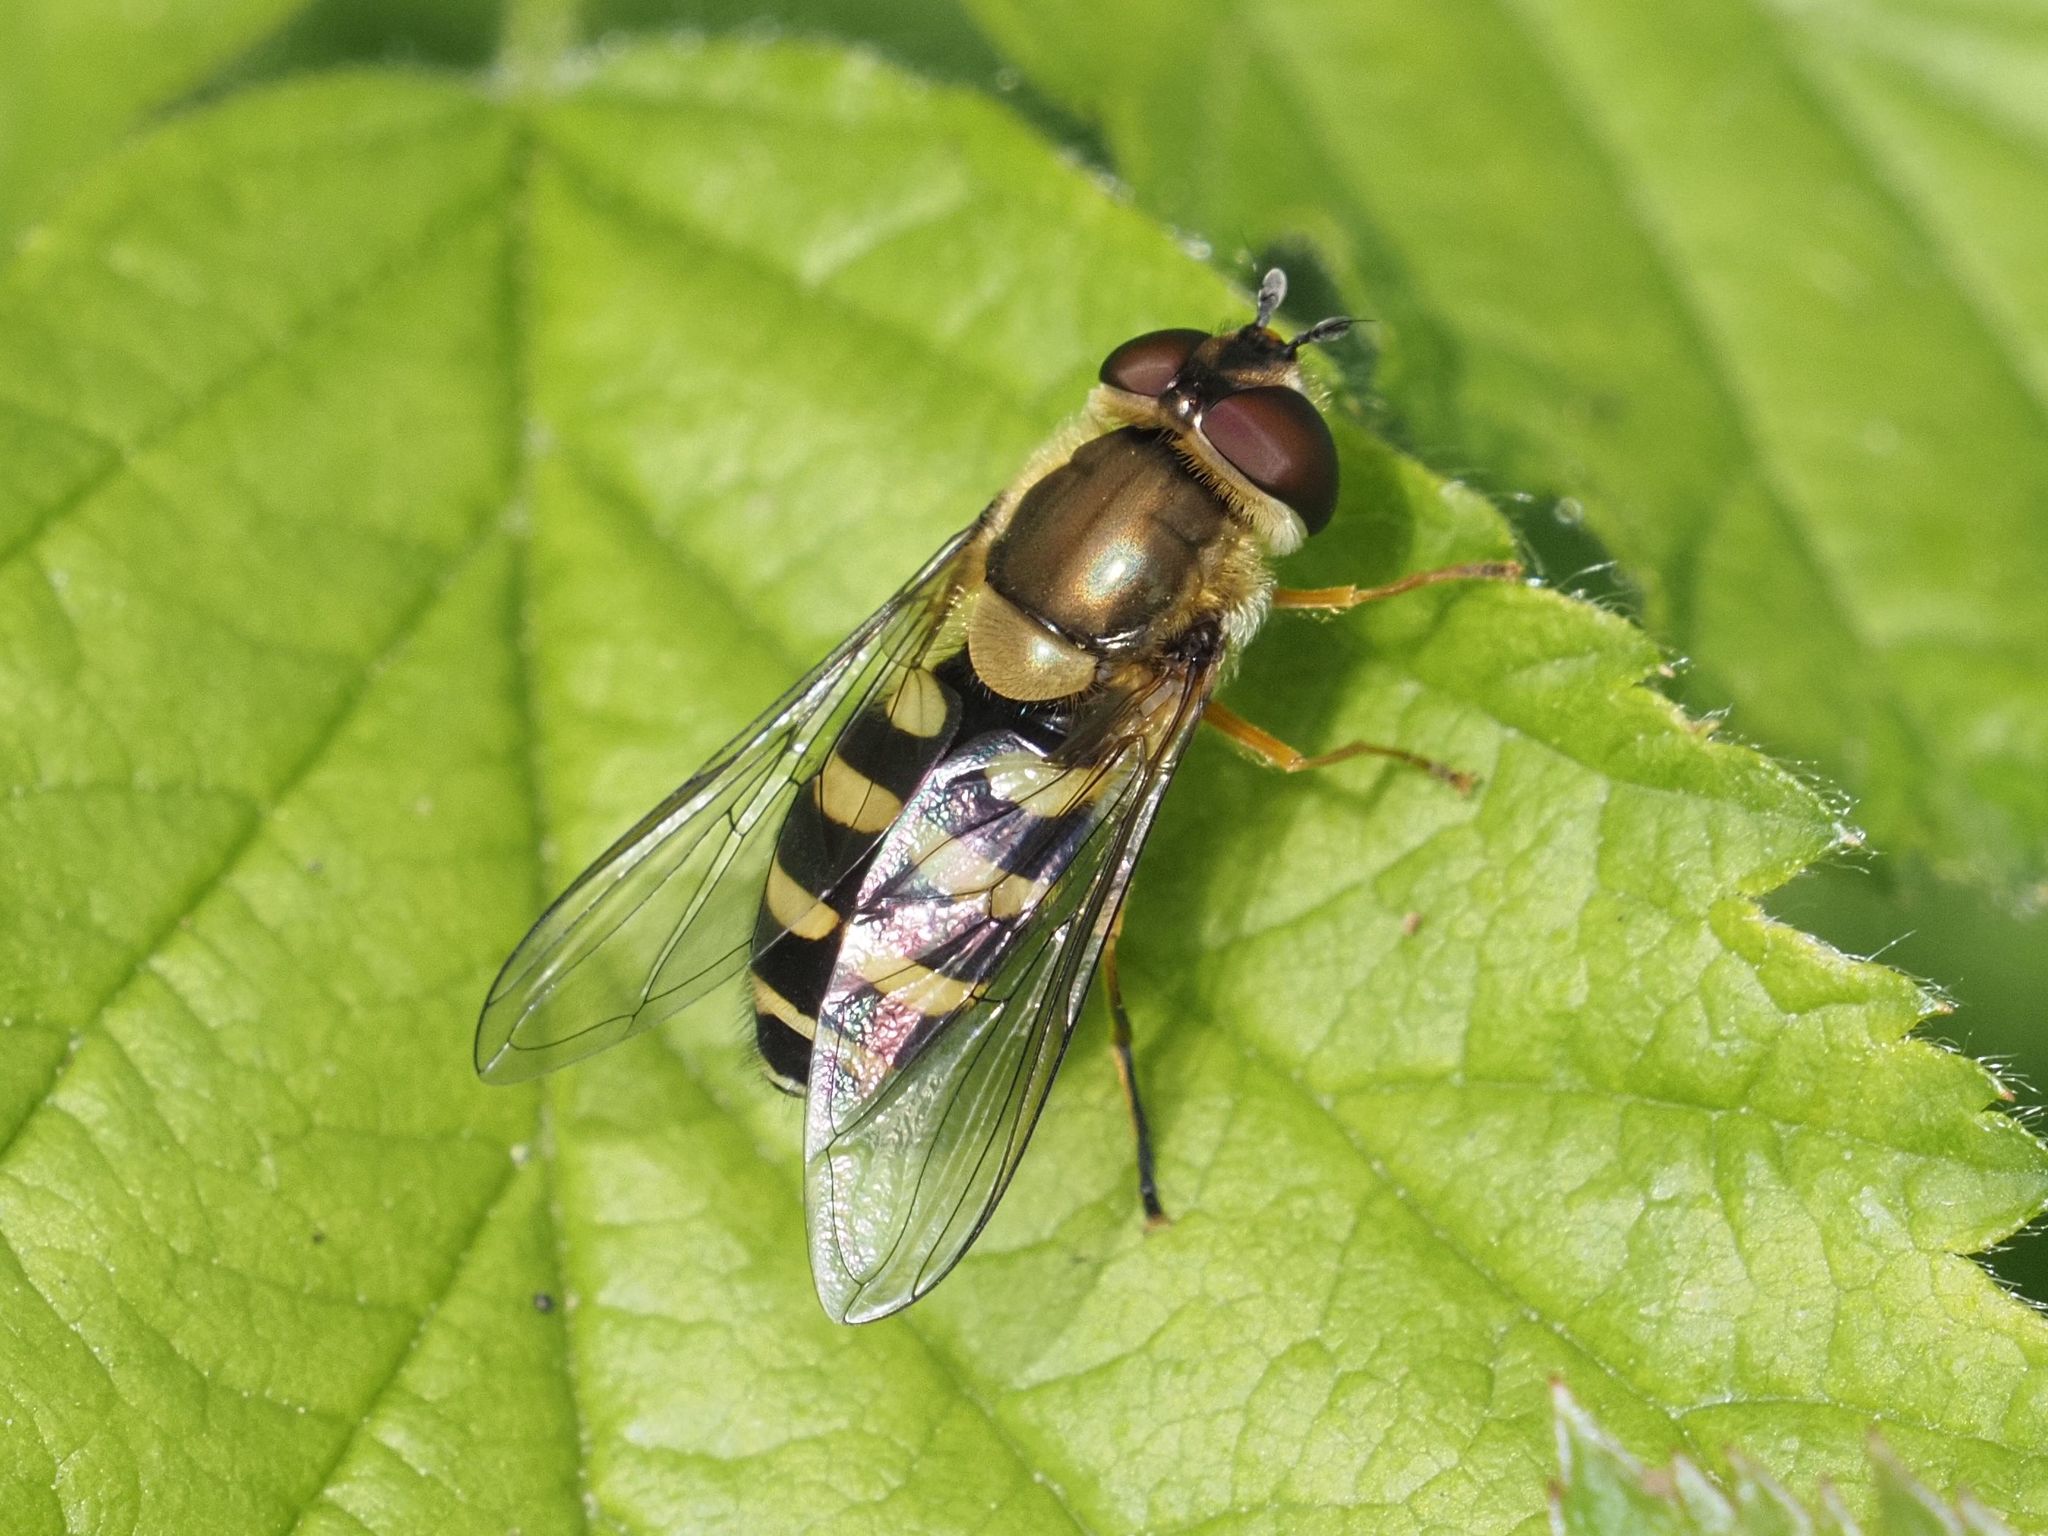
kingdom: Animalia
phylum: Arthropoda
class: Insecta
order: Diptera
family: Syrphidae
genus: Syrphus
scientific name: Syrphus ribesii
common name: Common flower fly
